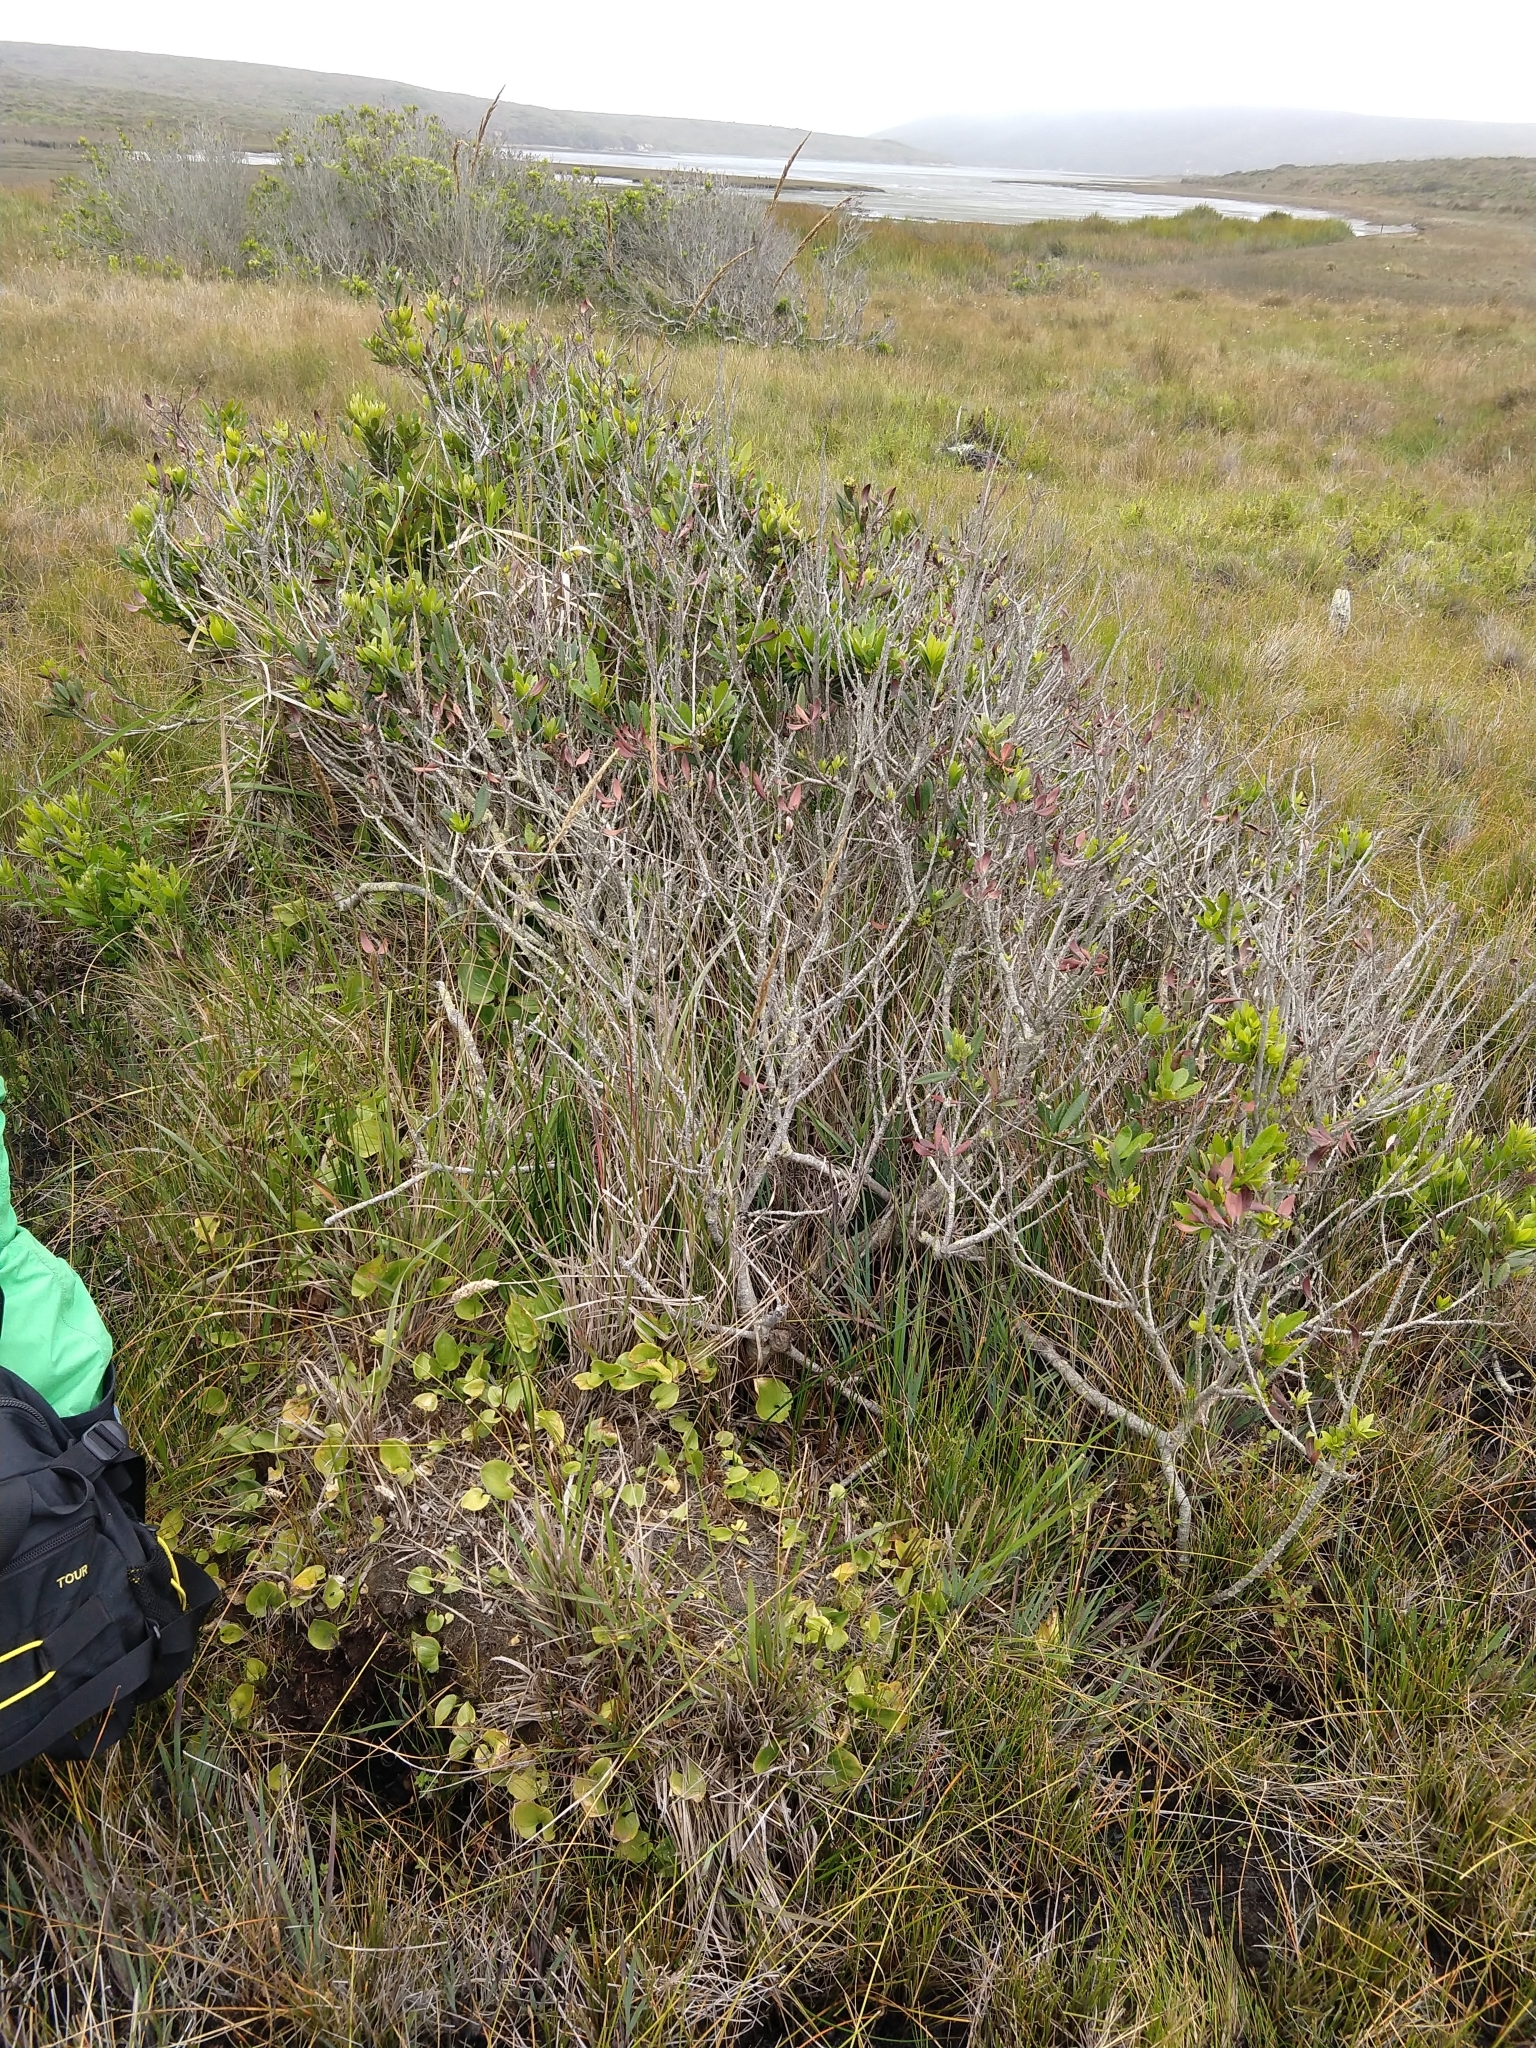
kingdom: Plantae
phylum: Tracheophyta
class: Liliopsida
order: Asparagales
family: Asparagaceae
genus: Maianthemum
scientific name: Maianthemum dilatatum
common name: False lily-of-the-valley
